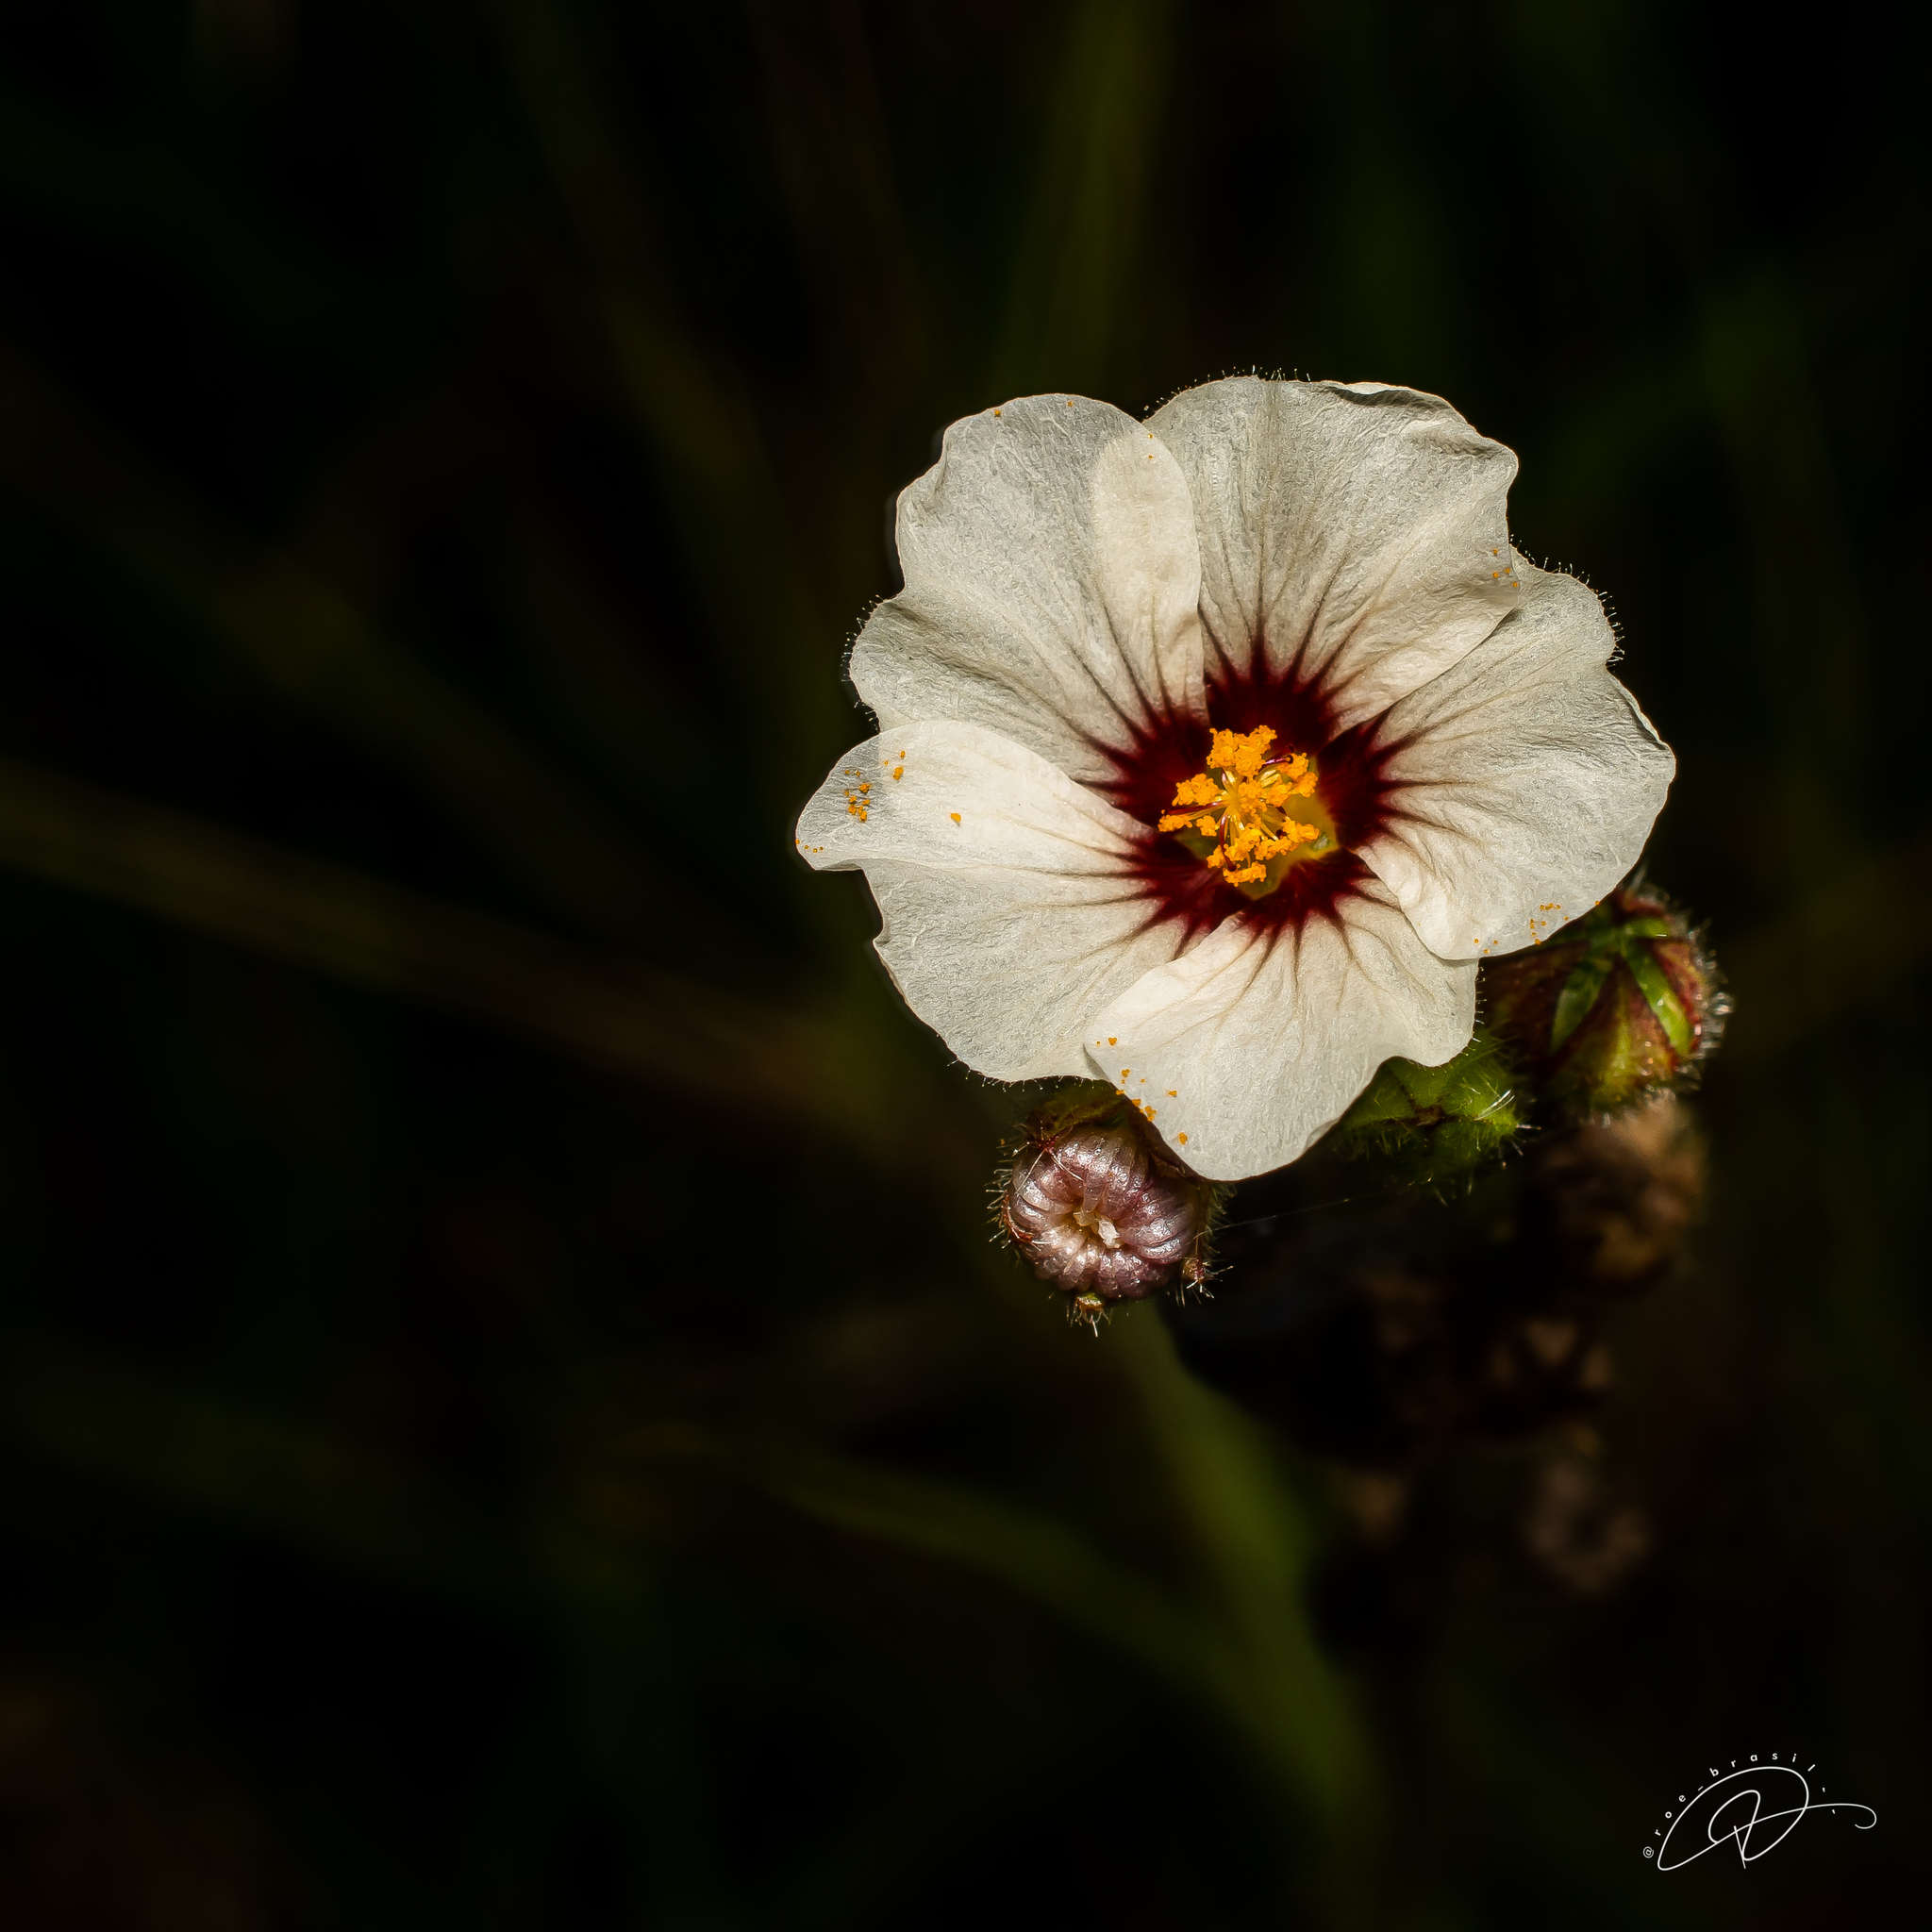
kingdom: Plantae
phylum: Tracheophyta
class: Magnoliopsida
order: Malvales
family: Malvaceae
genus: Sida
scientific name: Sida linifolia
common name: Flaxleaf fanpetals
